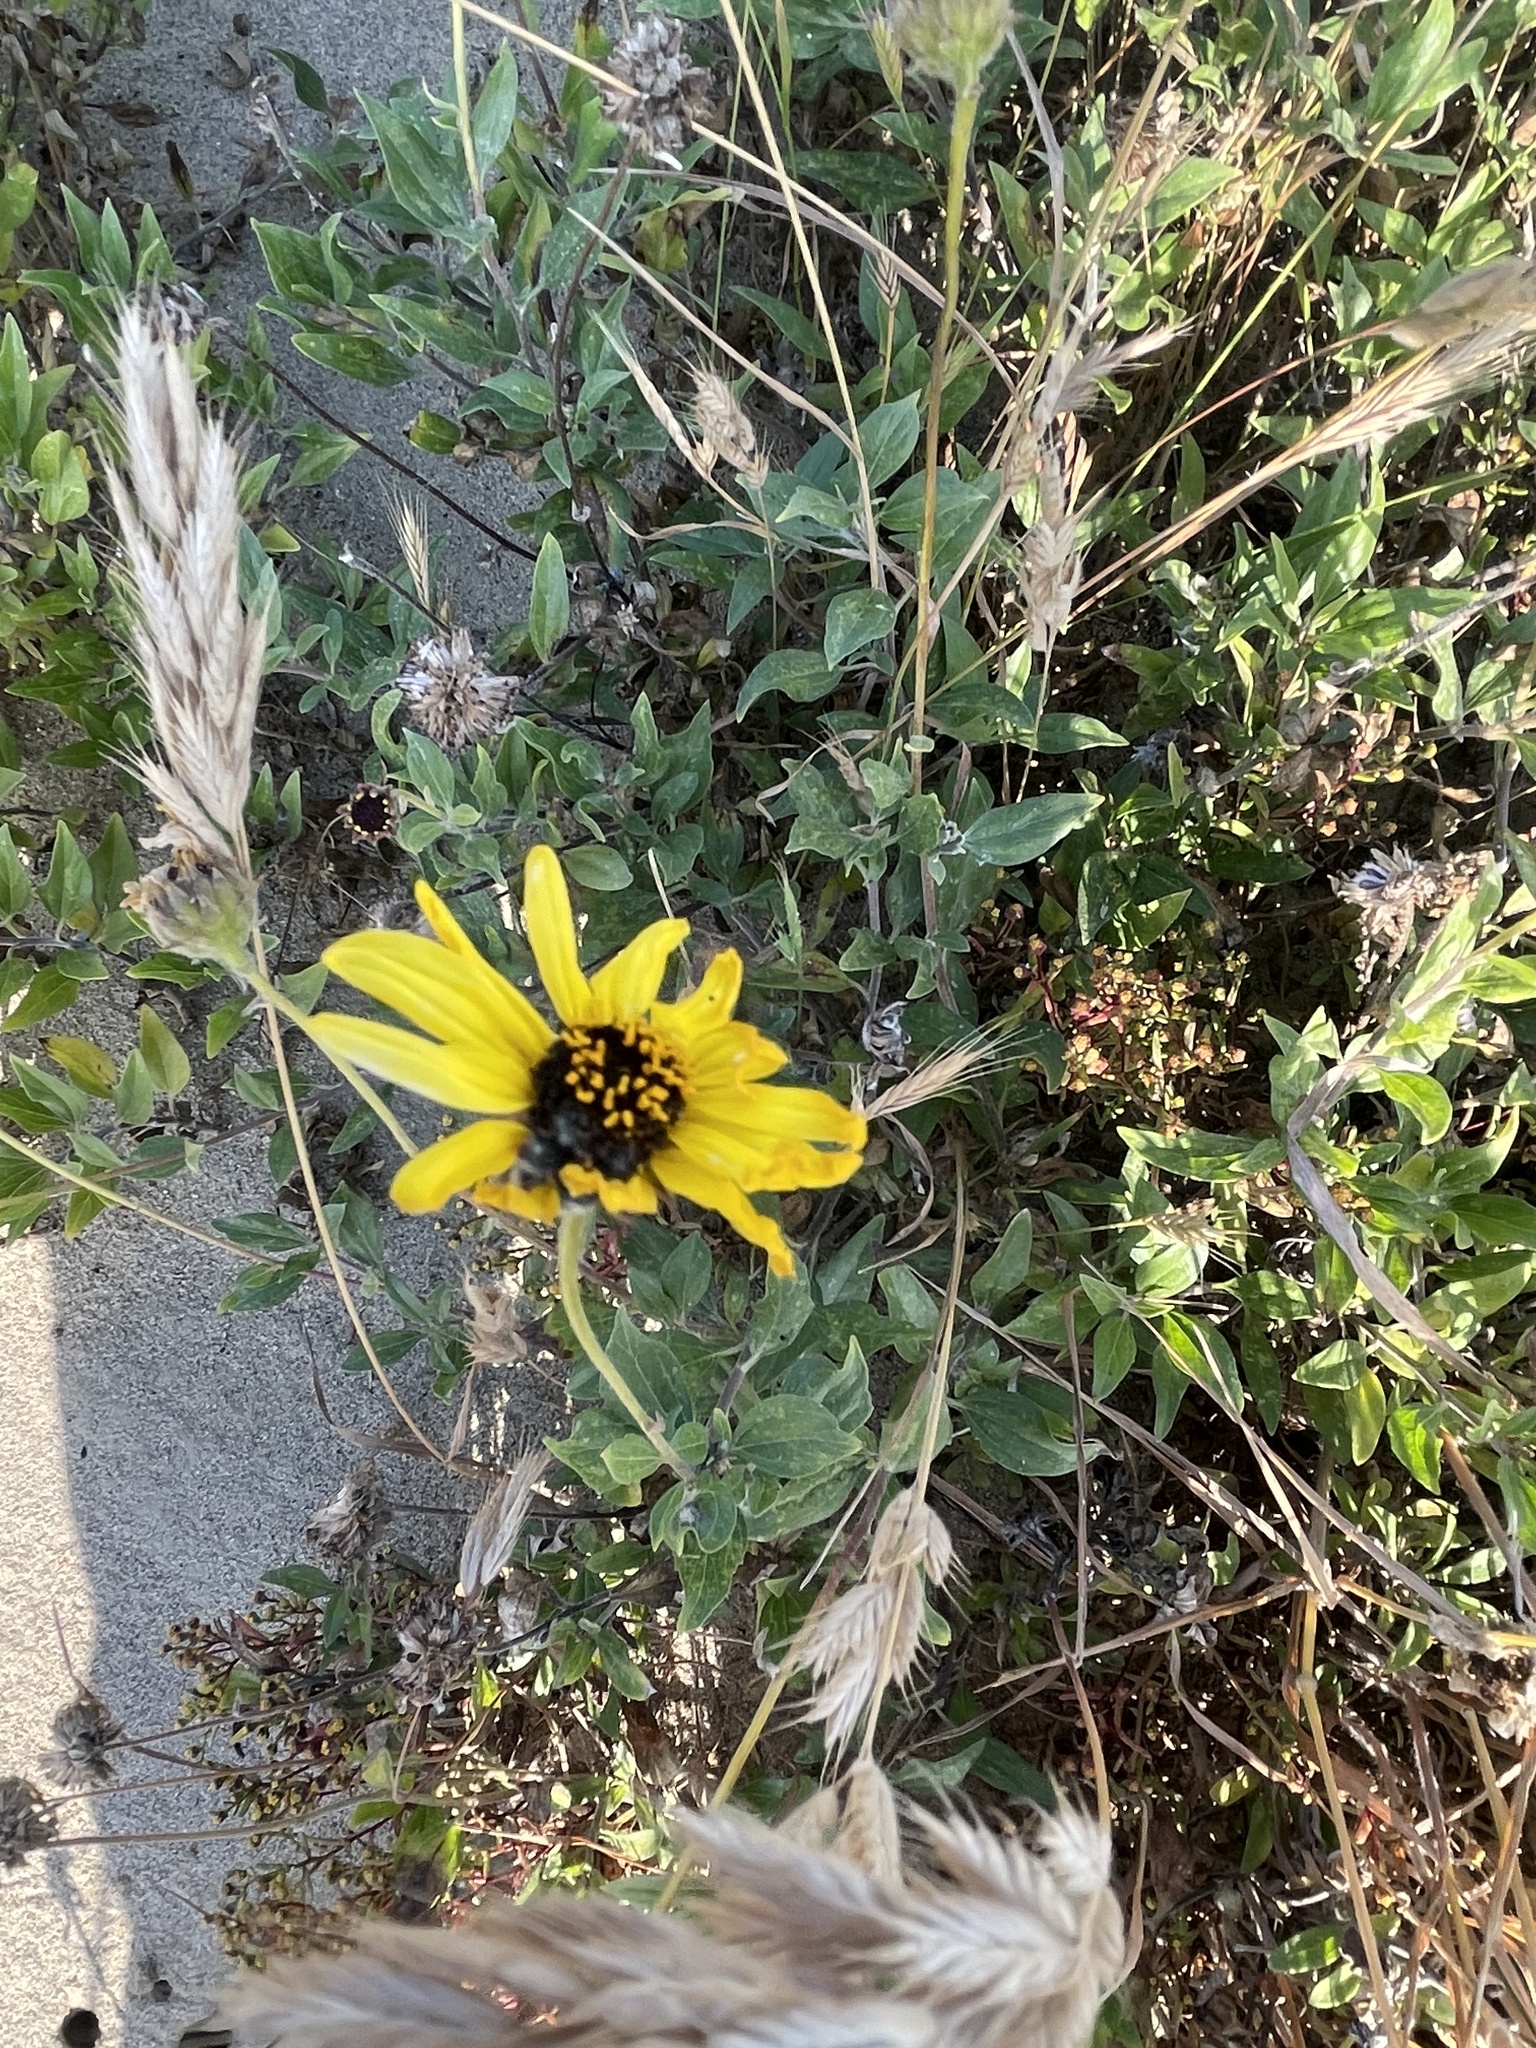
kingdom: Plantae
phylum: Tracheophyta
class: Magnoliopsida
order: Asterales
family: Asteraceae
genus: Encelia
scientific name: Encelia californica
